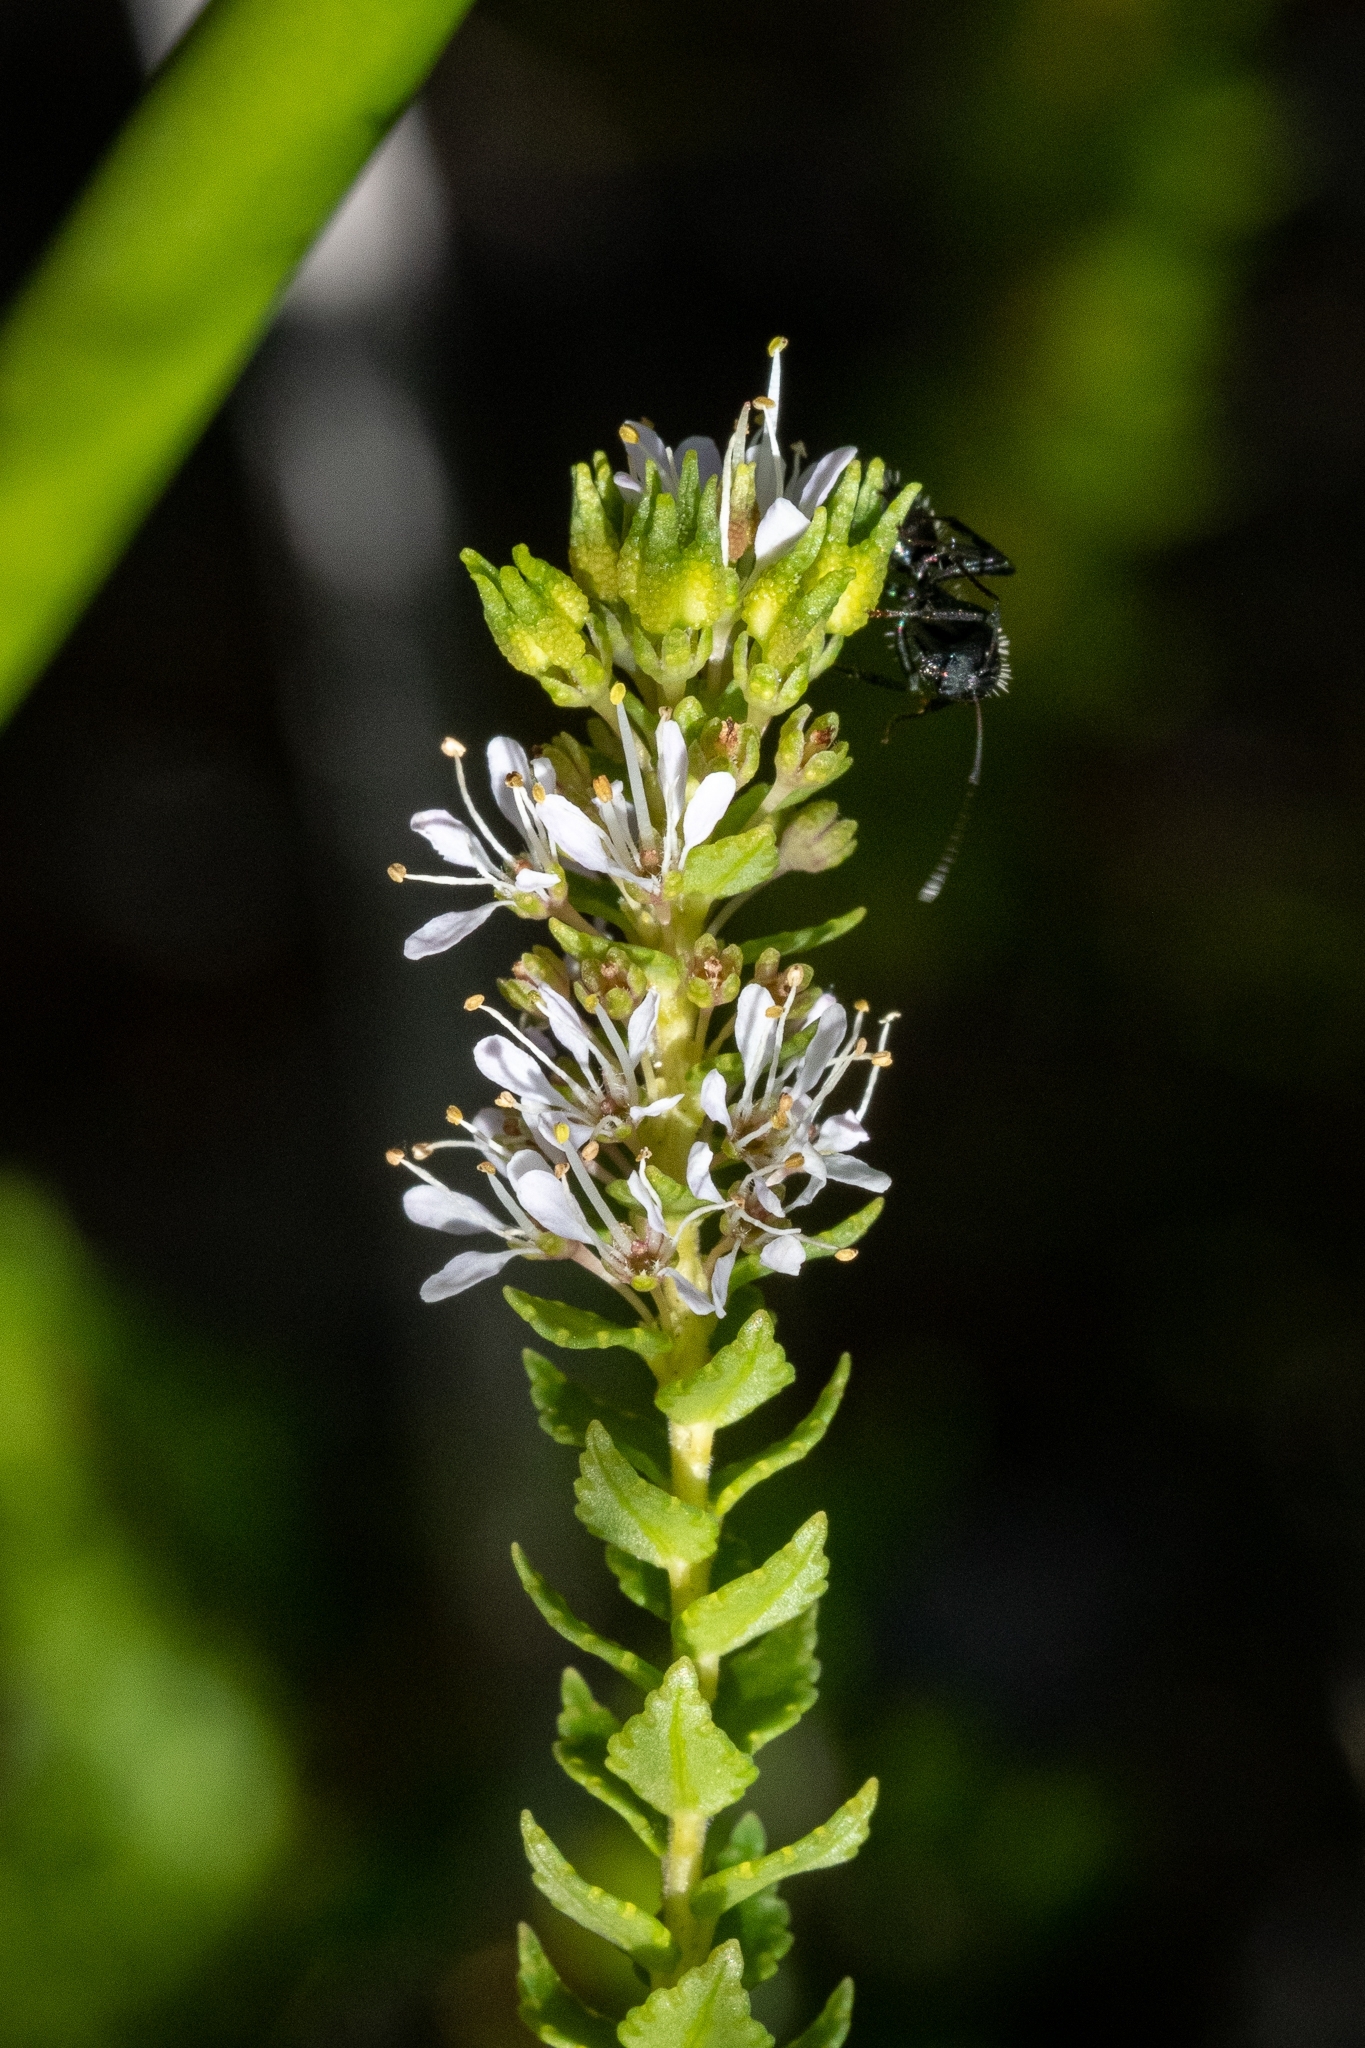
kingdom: Plantae
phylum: Tracheophyta
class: Magnoliopsida
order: Sapindales
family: Rutaceae
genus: Agathosma
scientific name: Agathosma tabularis
